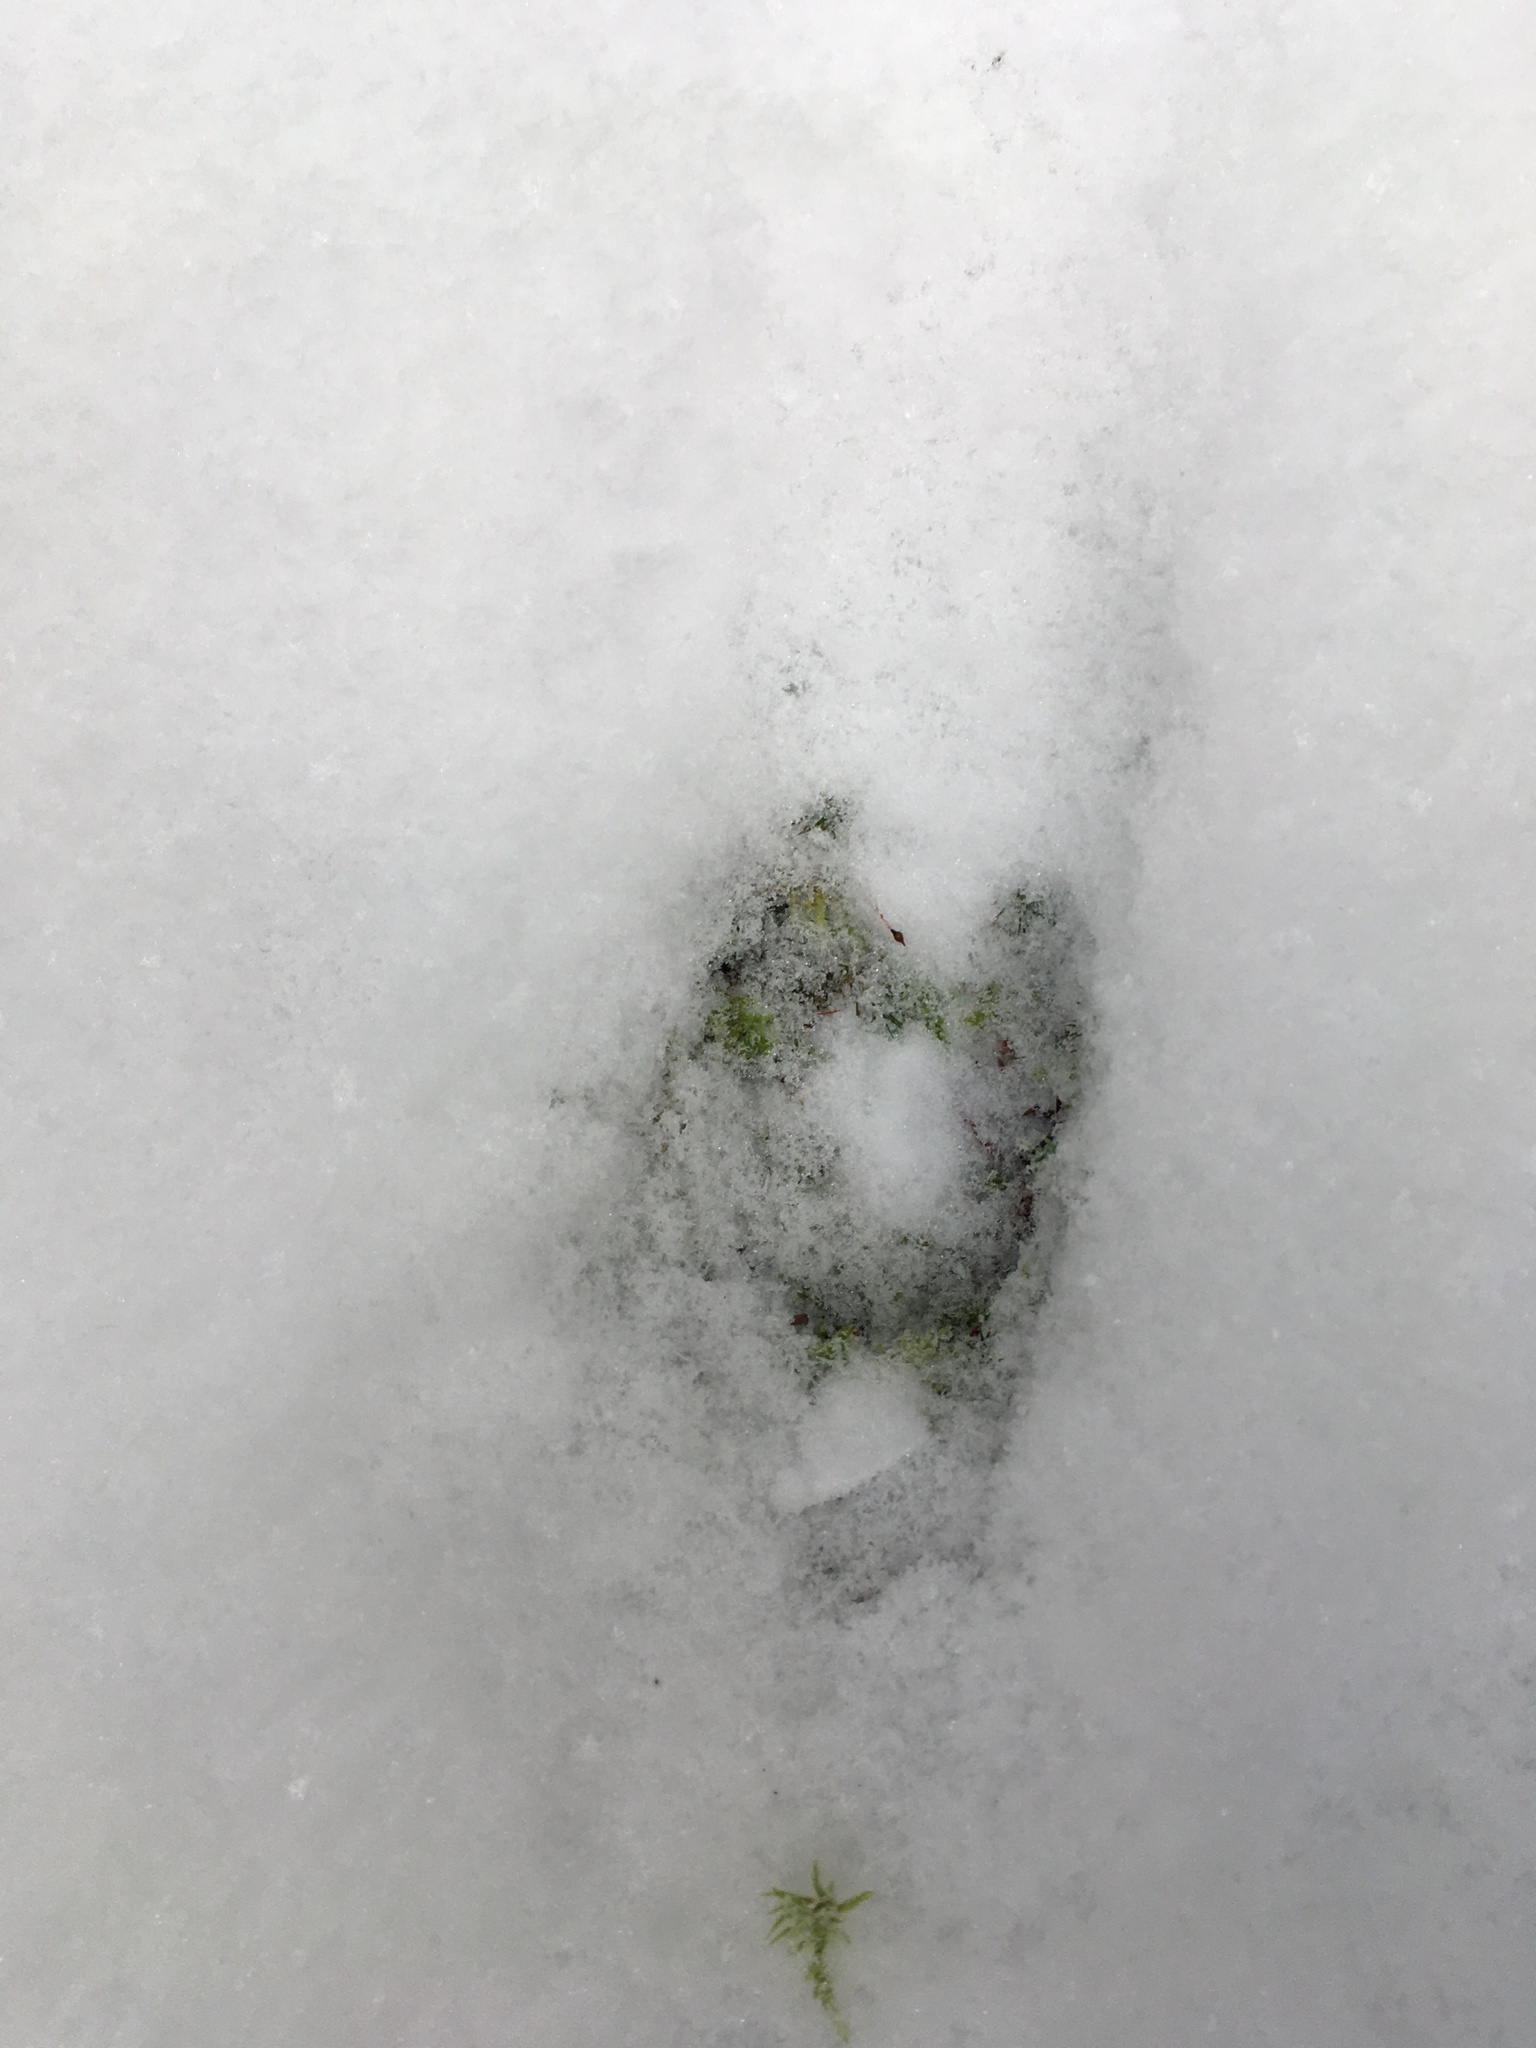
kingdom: Animalia
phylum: Chordata
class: Mammalia
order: Artiodactyla
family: Cervidae
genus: Odocoileus
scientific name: Odocoileus hemionus
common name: Mule deer
